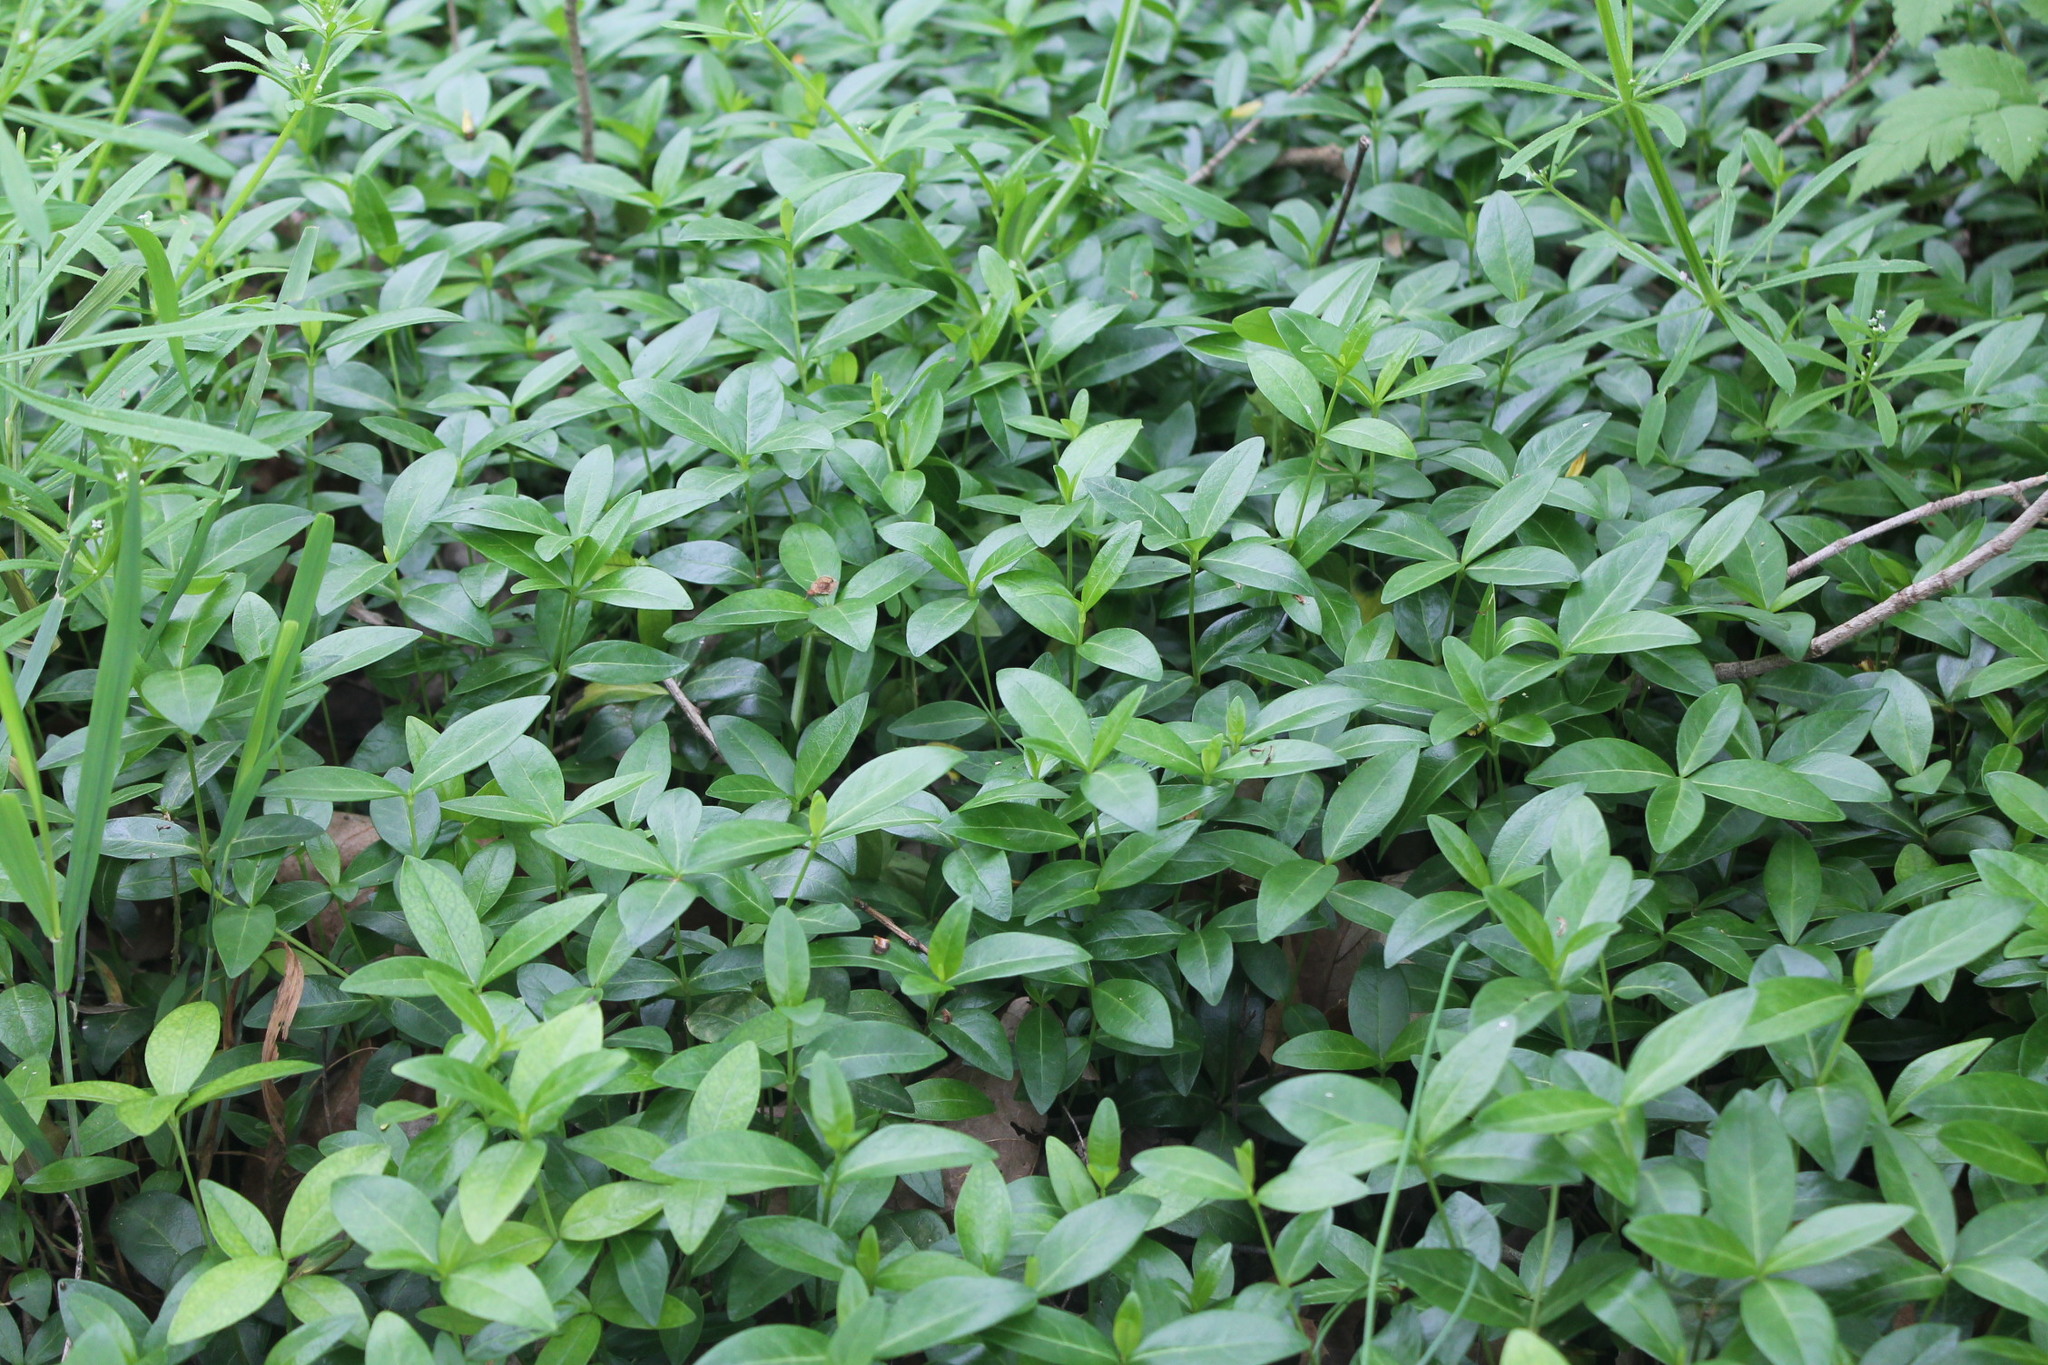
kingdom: Plantae
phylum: Tracheophyta
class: Magnoliopsida
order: Gentianales
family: Apocynaceae
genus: Vinca
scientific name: Vinca minor
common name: Lesser periwinkle
